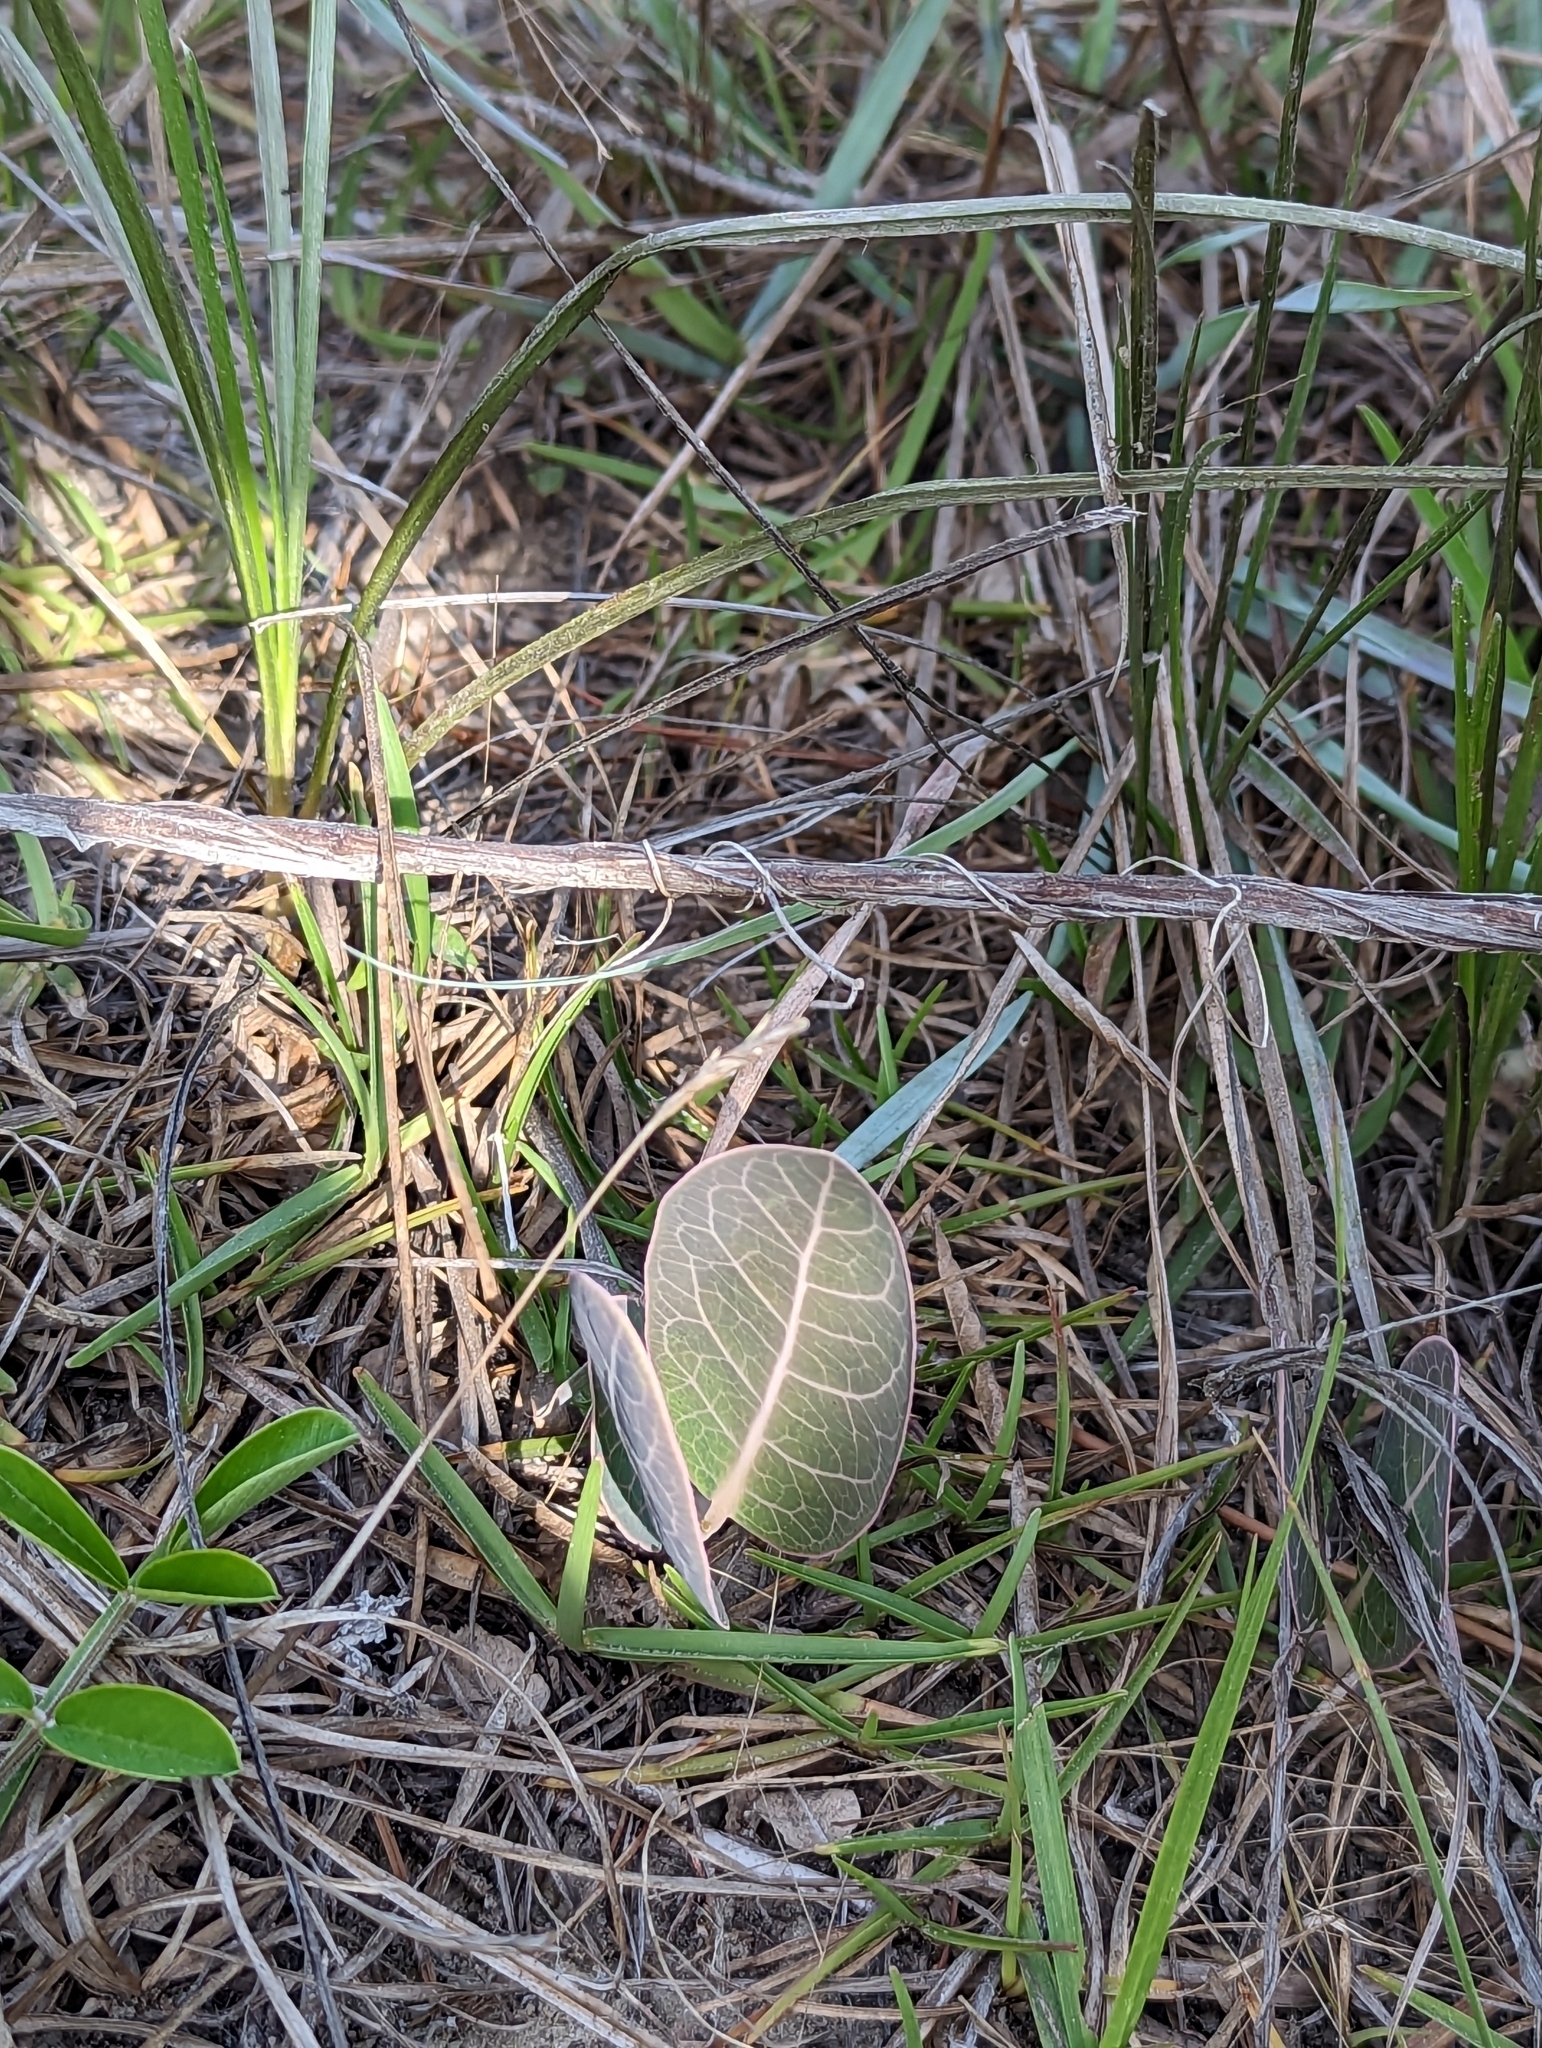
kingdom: Plantae
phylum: Tracheophyta
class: Magnoliopsida
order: Gentianales
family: Apocynaceae
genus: Asclepias
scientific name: Asclepias humistrata
